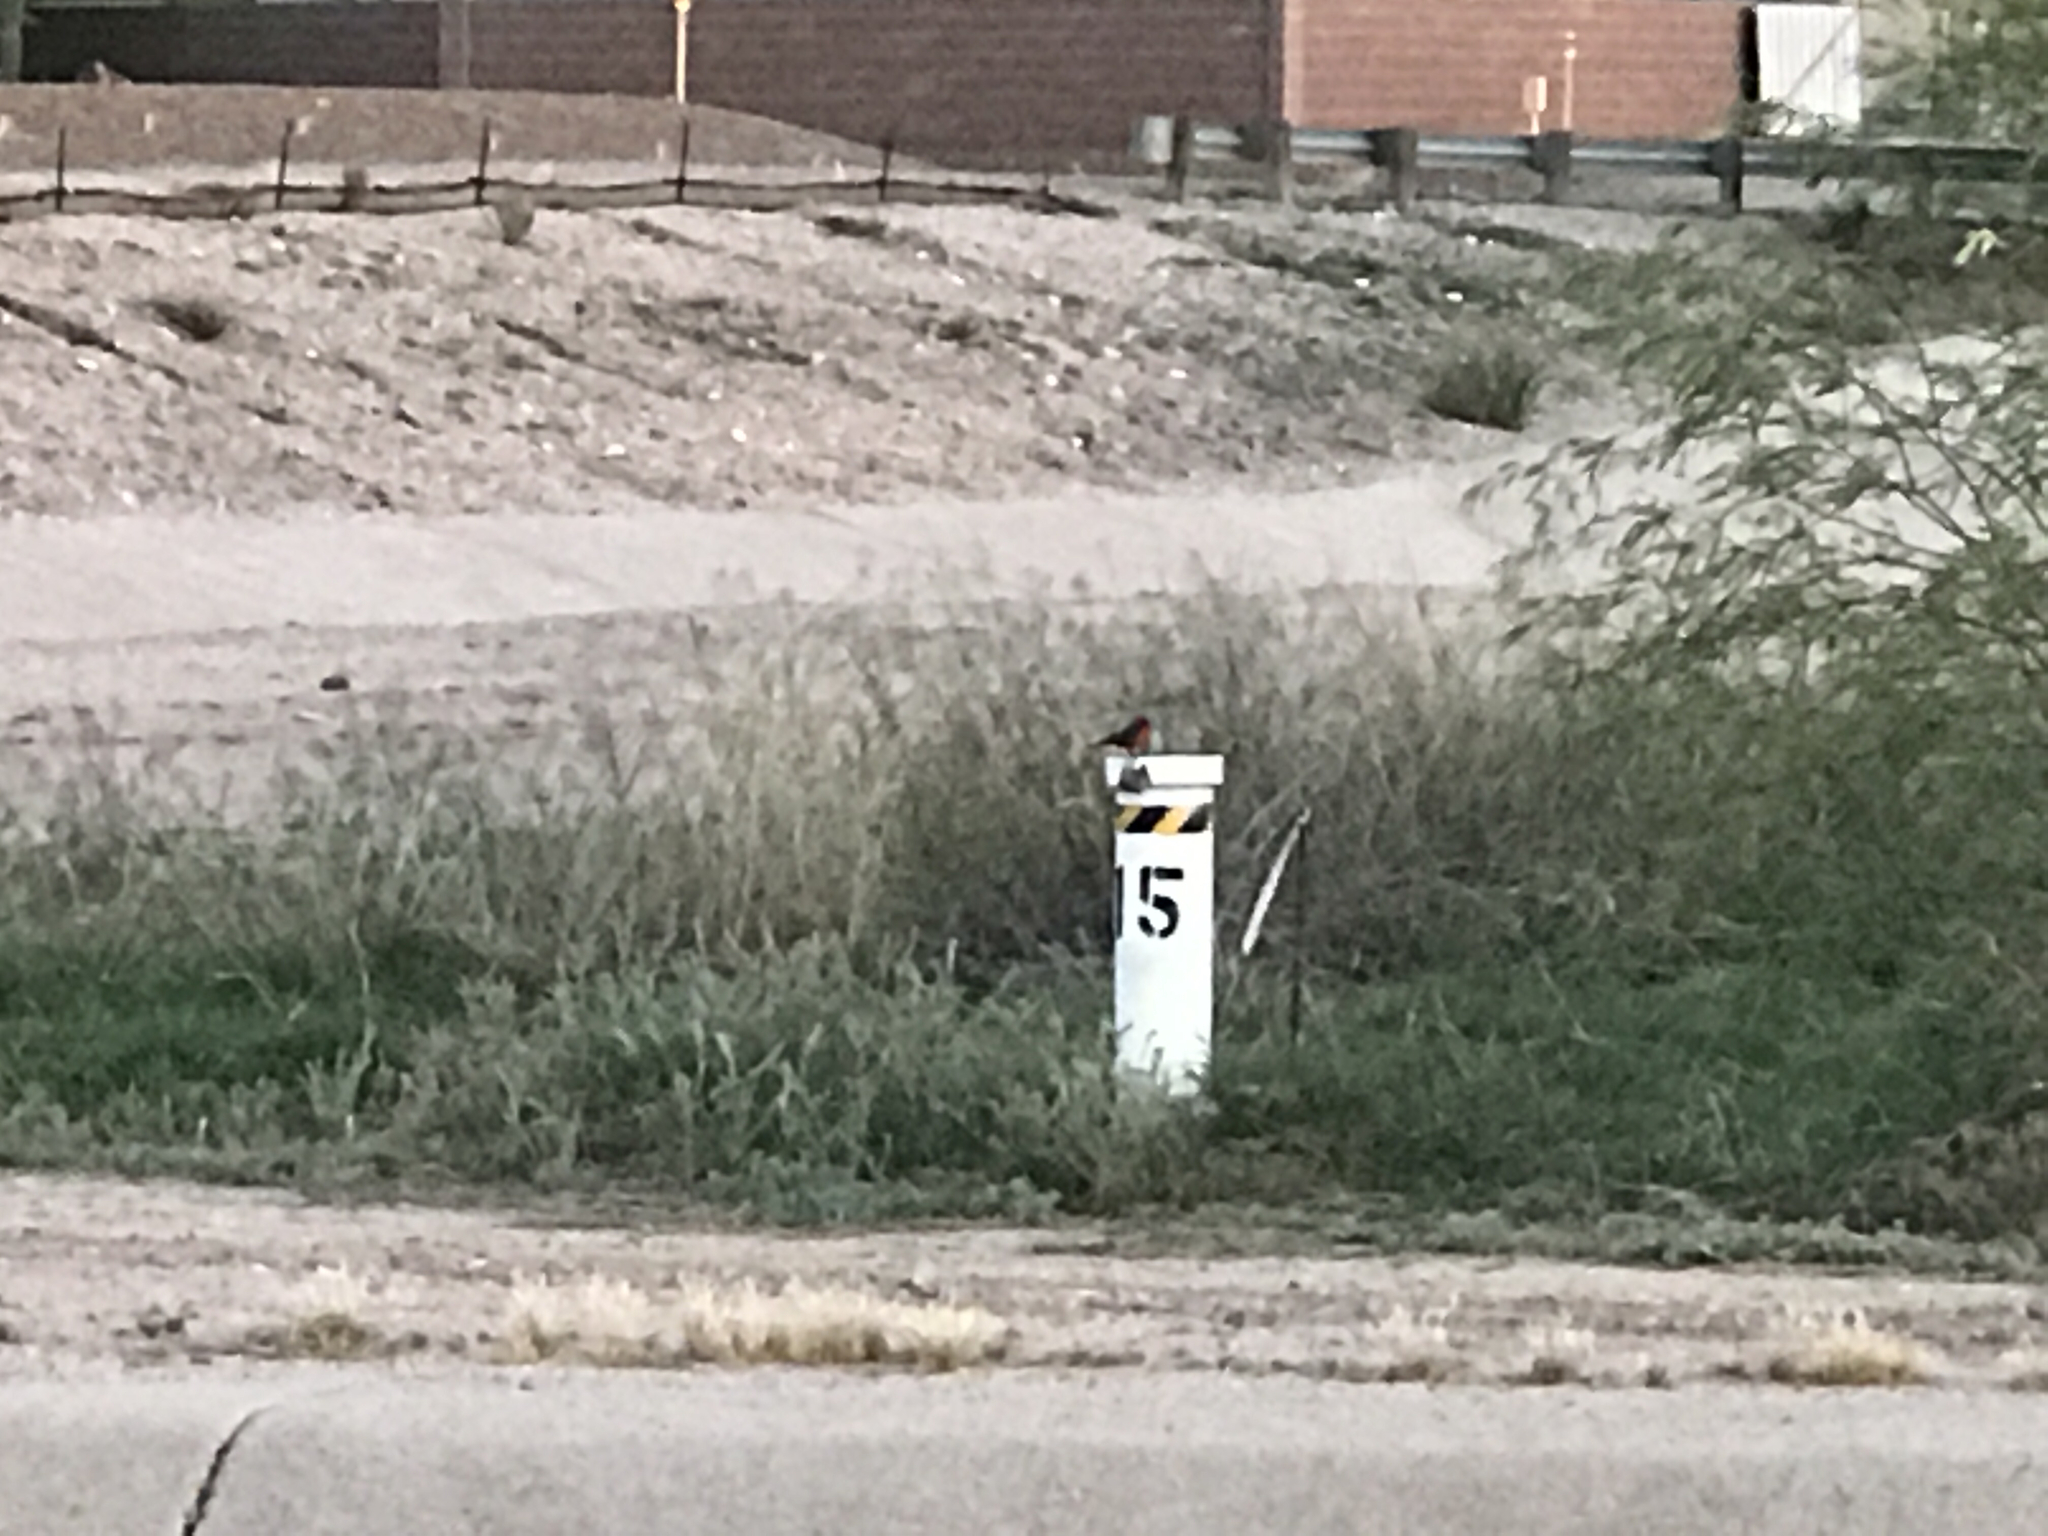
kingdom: Animalia
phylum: Chordata
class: Aves
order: Passeriformes
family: Tyrannidae
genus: Pyrocephalus
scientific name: Pyrocephalus rubinus
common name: Vermilion flycatcher
